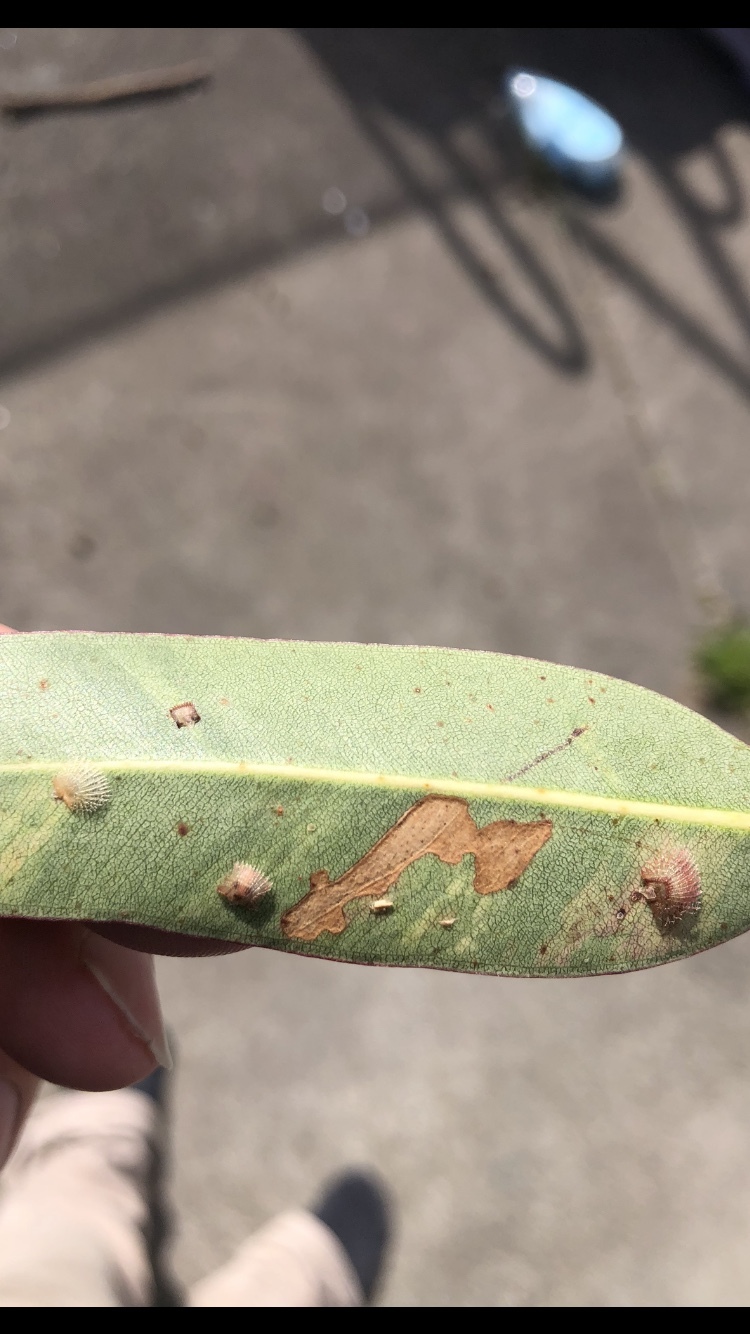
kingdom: Animalia
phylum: Arthropoda
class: Insecta
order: Hemiptera
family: Aphalaridae
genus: Cardiaspina
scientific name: Cardiaspina fiscella
